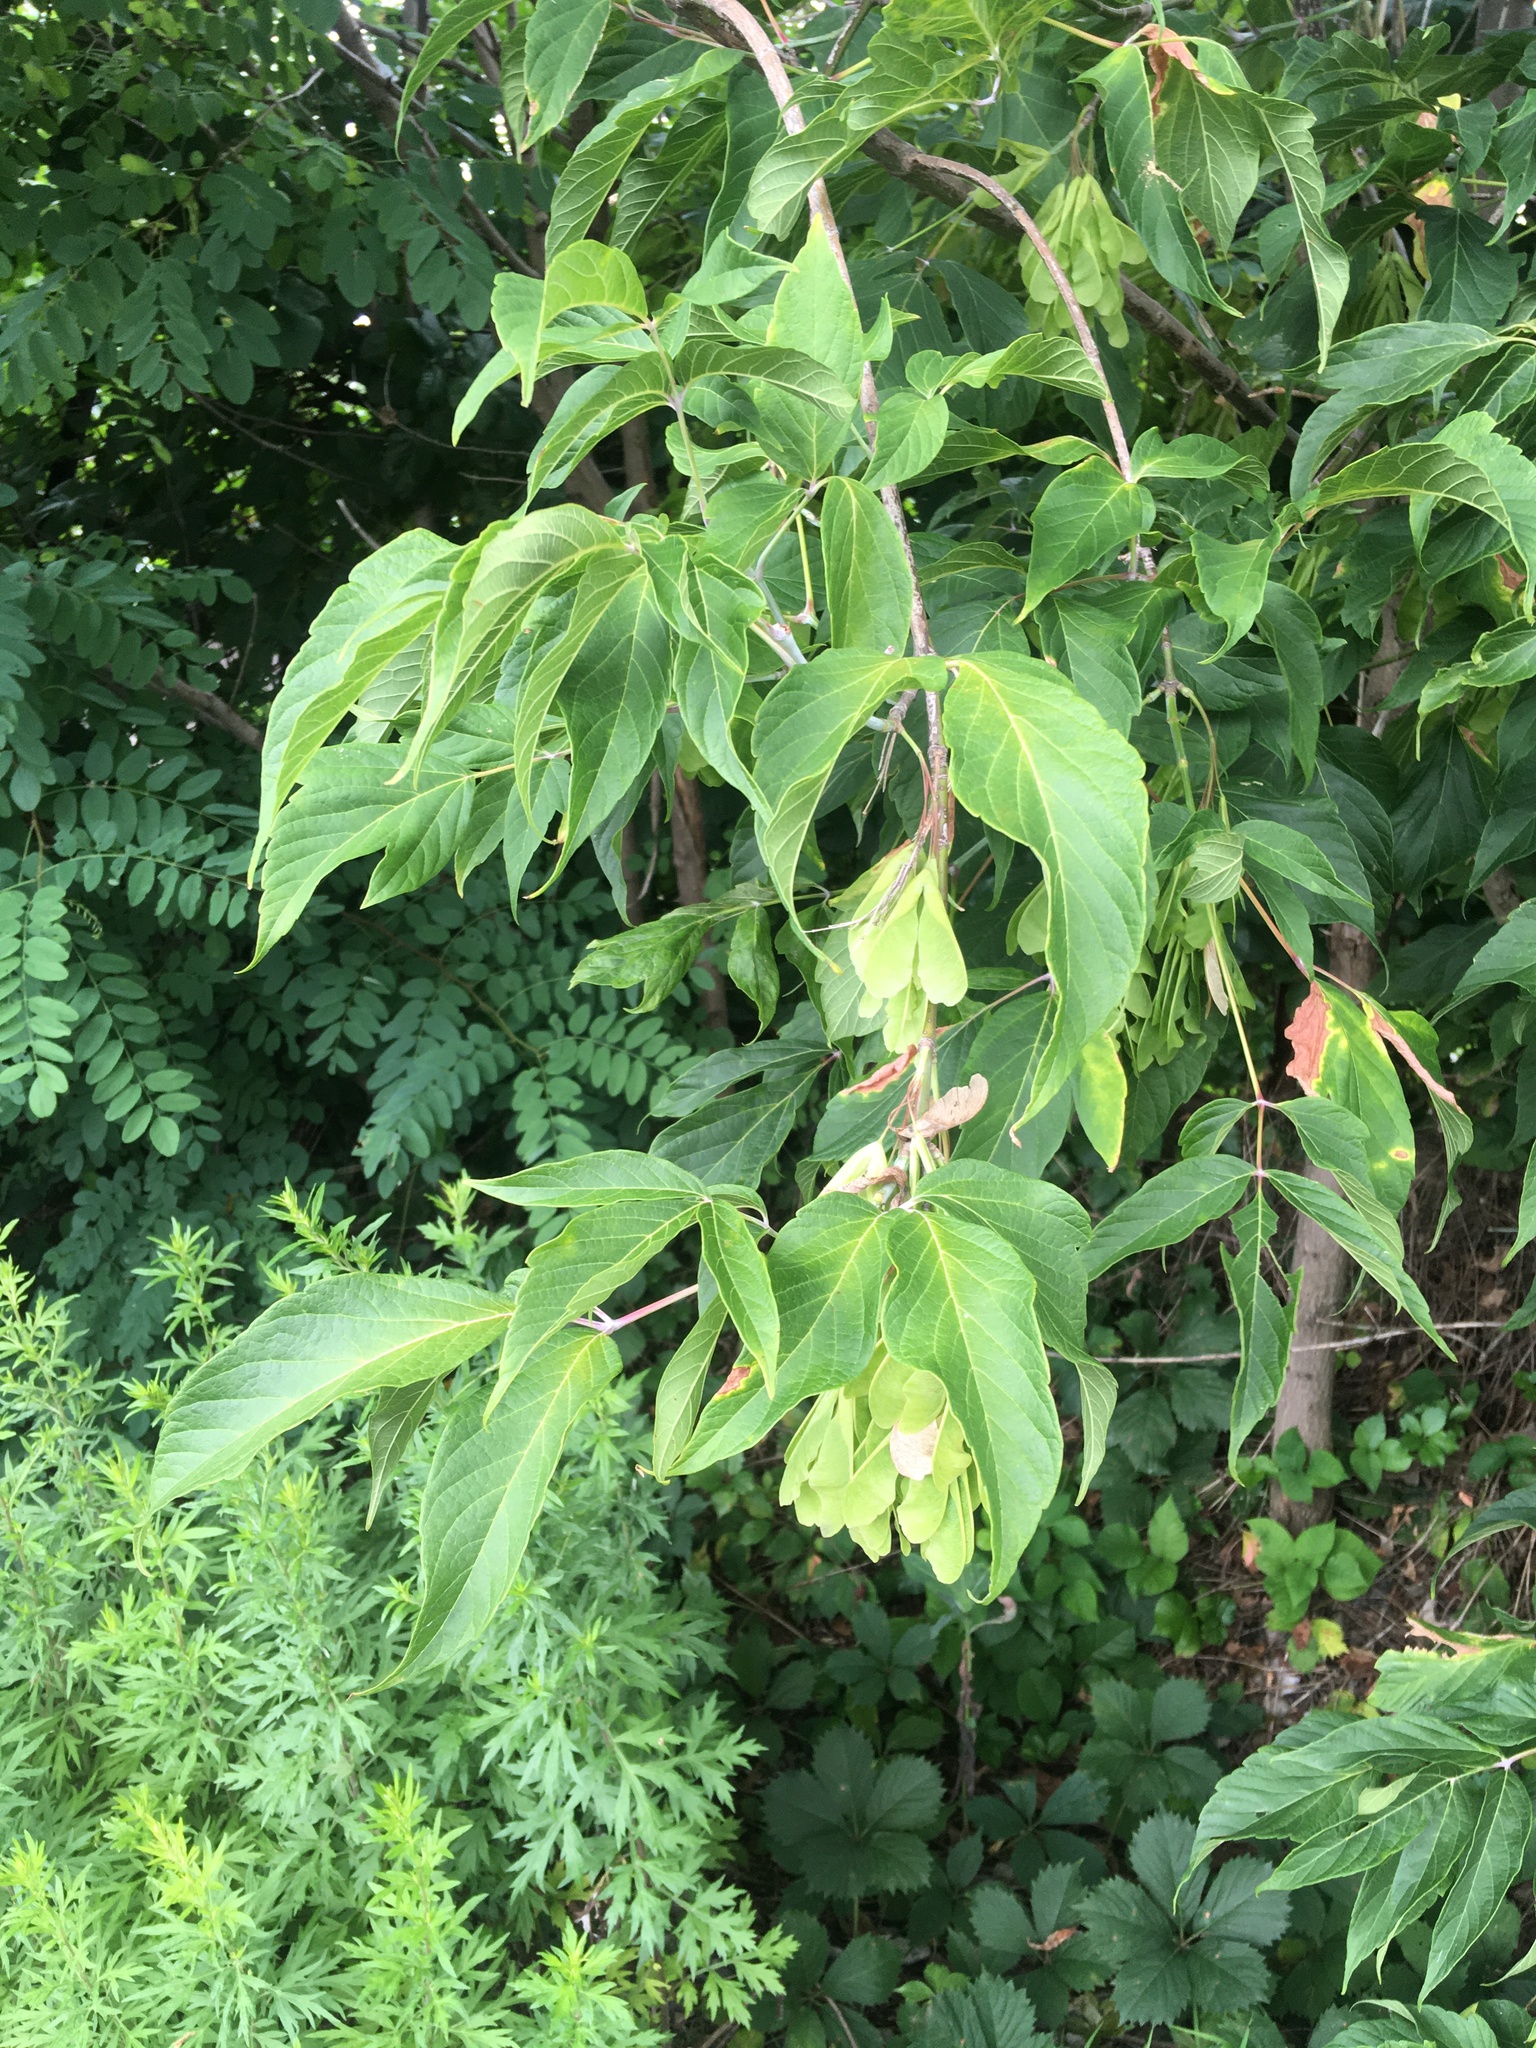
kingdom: Plantae
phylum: Tracheophyta
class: Magnoliopsida
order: Sapindales
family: Sapindaceae
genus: Acer
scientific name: Acer negundo
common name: Ashleaf maple
